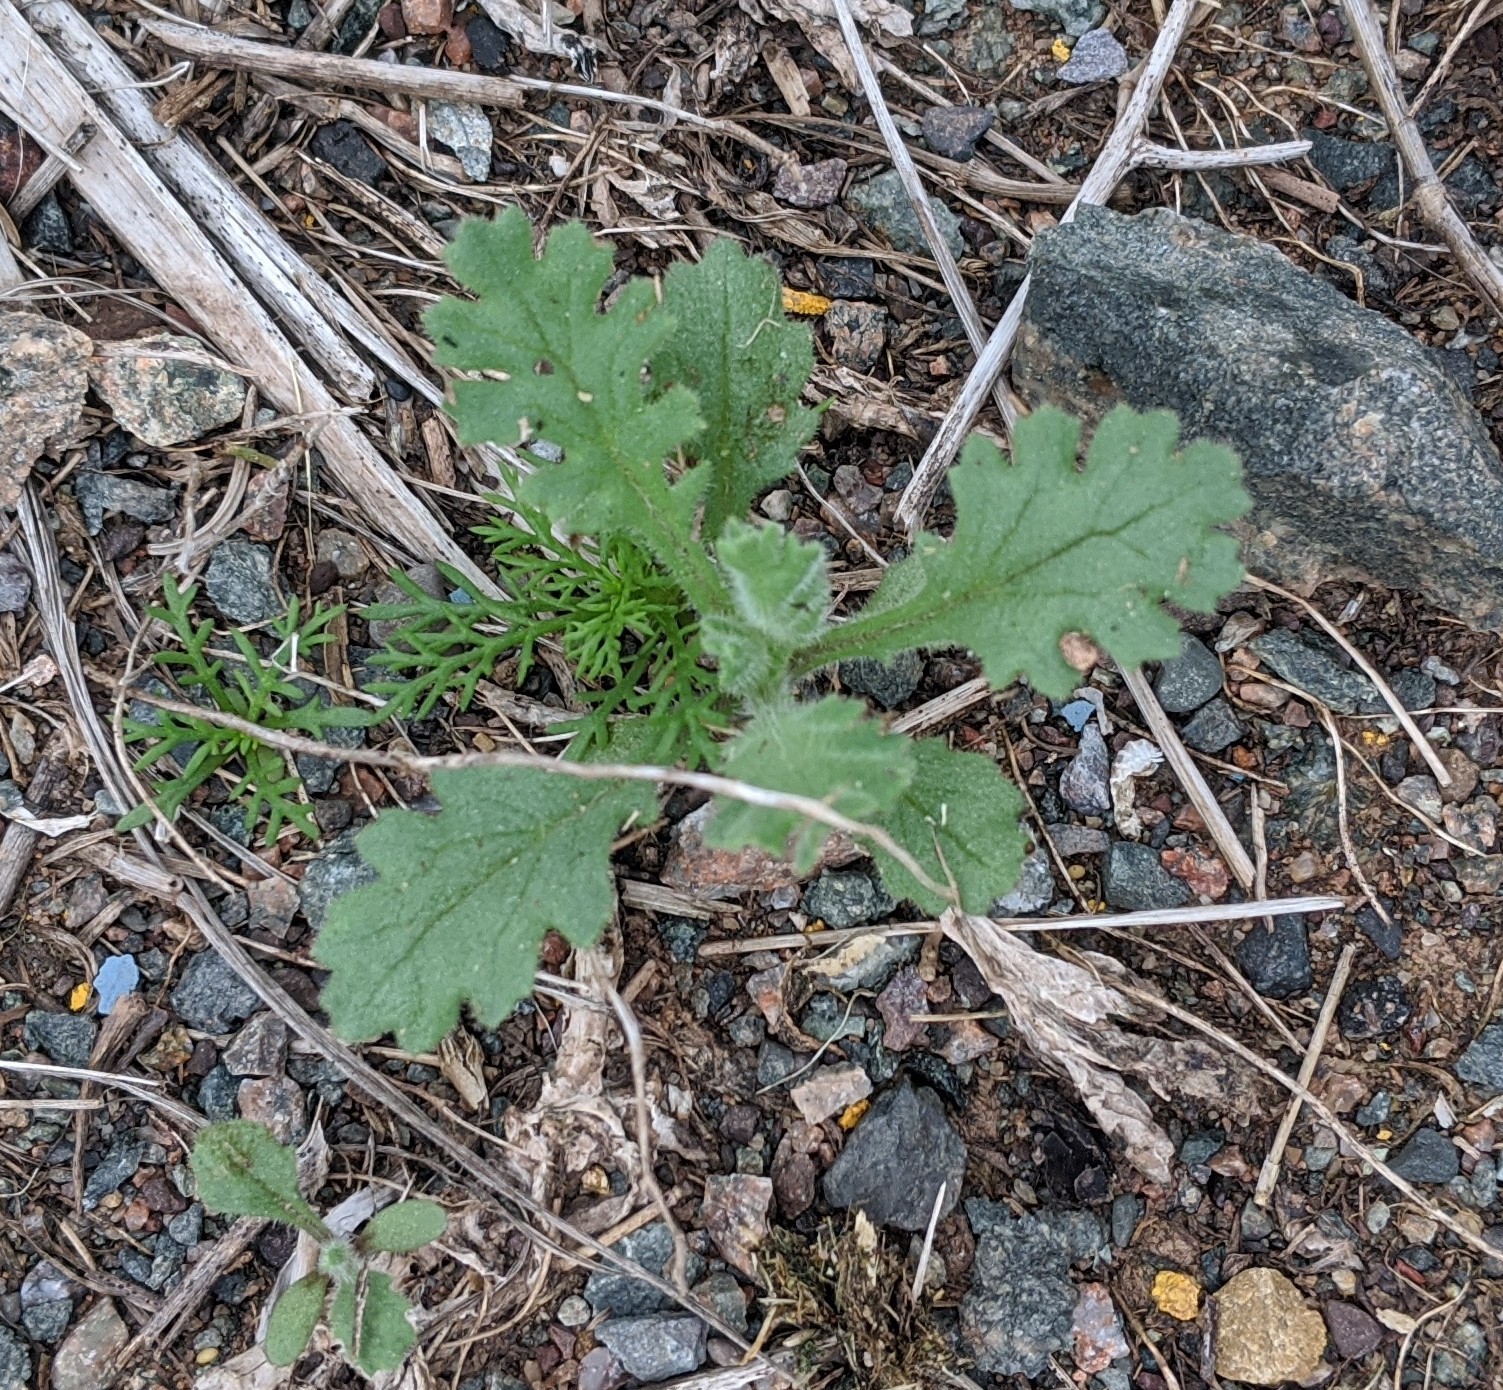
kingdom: Plantae
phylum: Tracheophyta
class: Magnoliopsida
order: Asterales
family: Asteraceae
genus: Senecio
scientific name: Senecio viscosus
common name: Sticky groundsel
